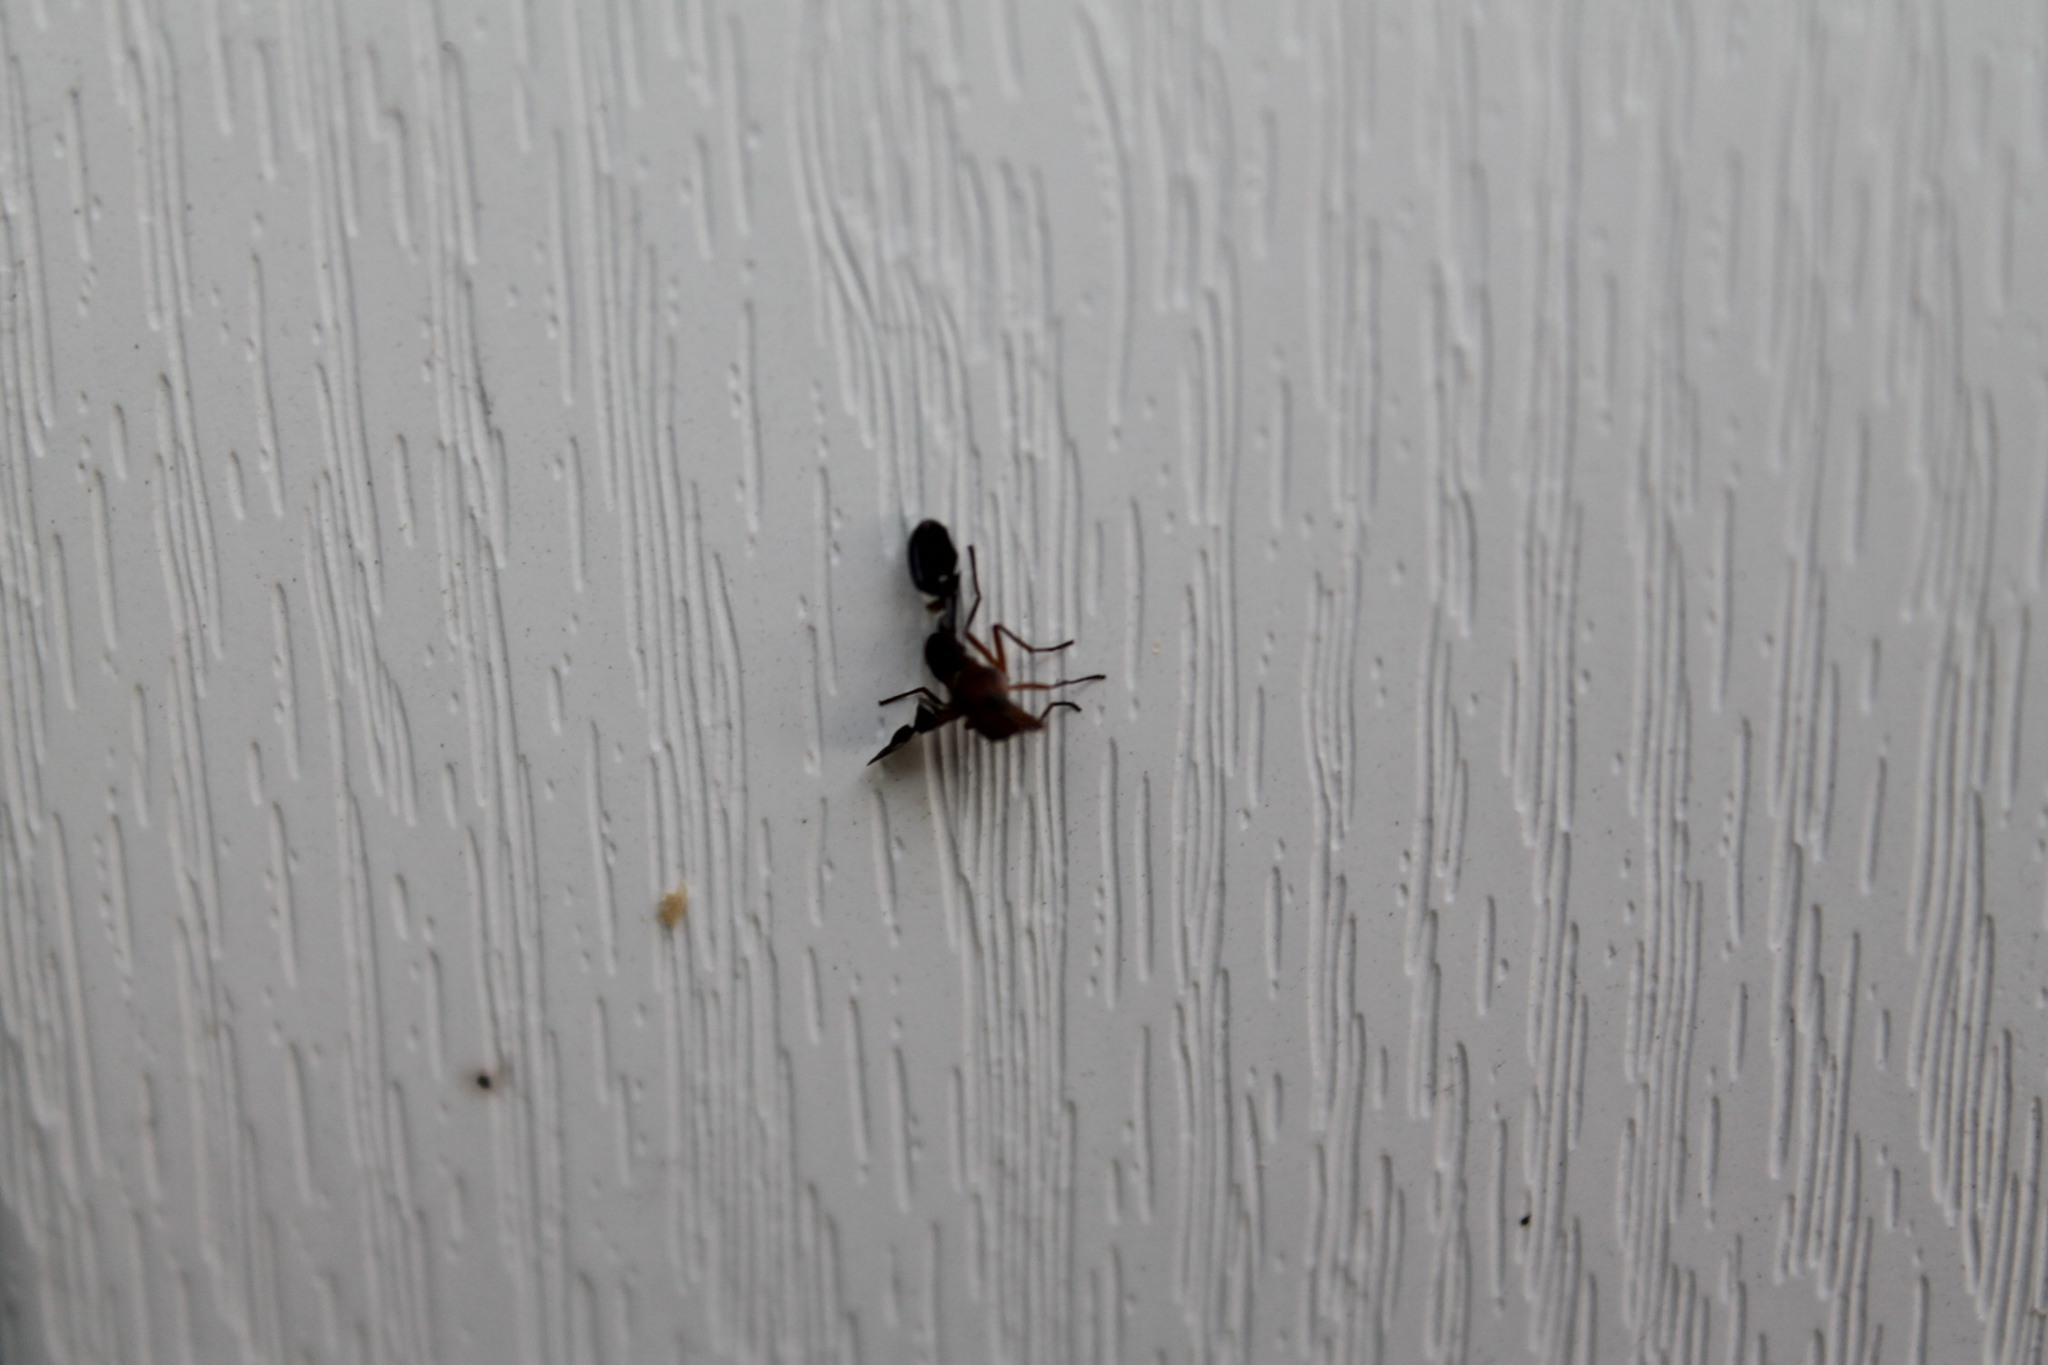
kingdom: Animalia
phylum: Arthropoda
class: Insecta
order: Diptera
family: Ulidiidae
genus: Delphinia
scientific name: Delphinia picta
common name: Common picture-winged fly
